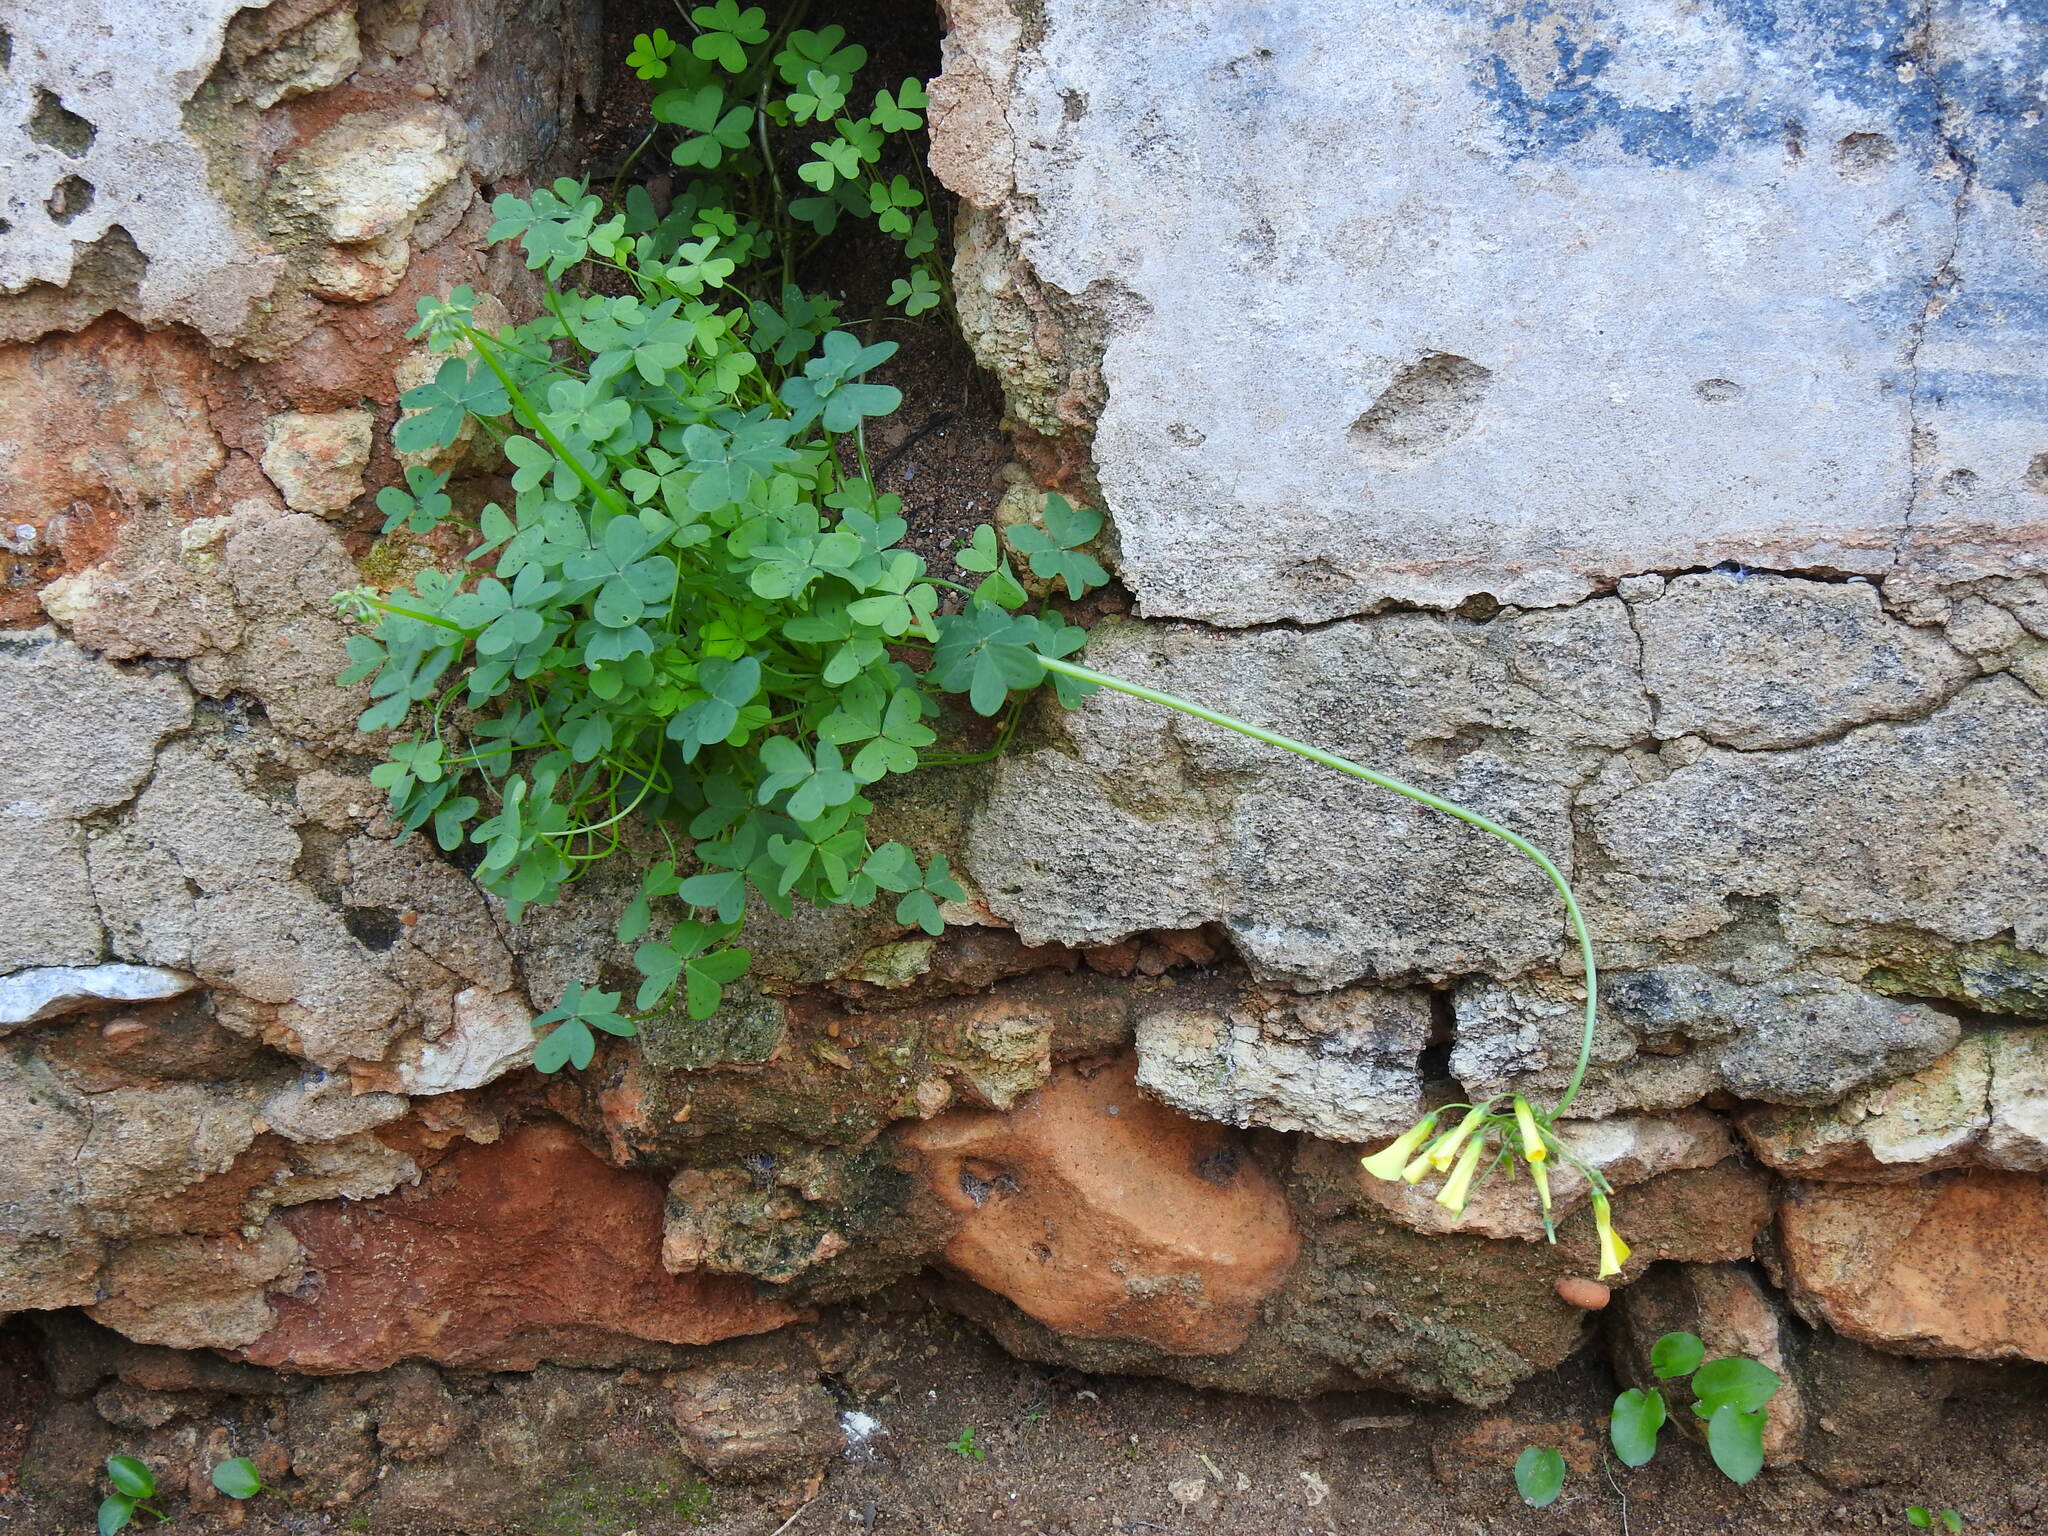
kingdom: Plantae
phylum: Tracheophyta
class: Magnoliopsida
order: Oxalidales
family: Oxalidaceae
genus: Oxalis
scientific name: Oxalis pes-caprae
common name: Bermuda-buttercup
